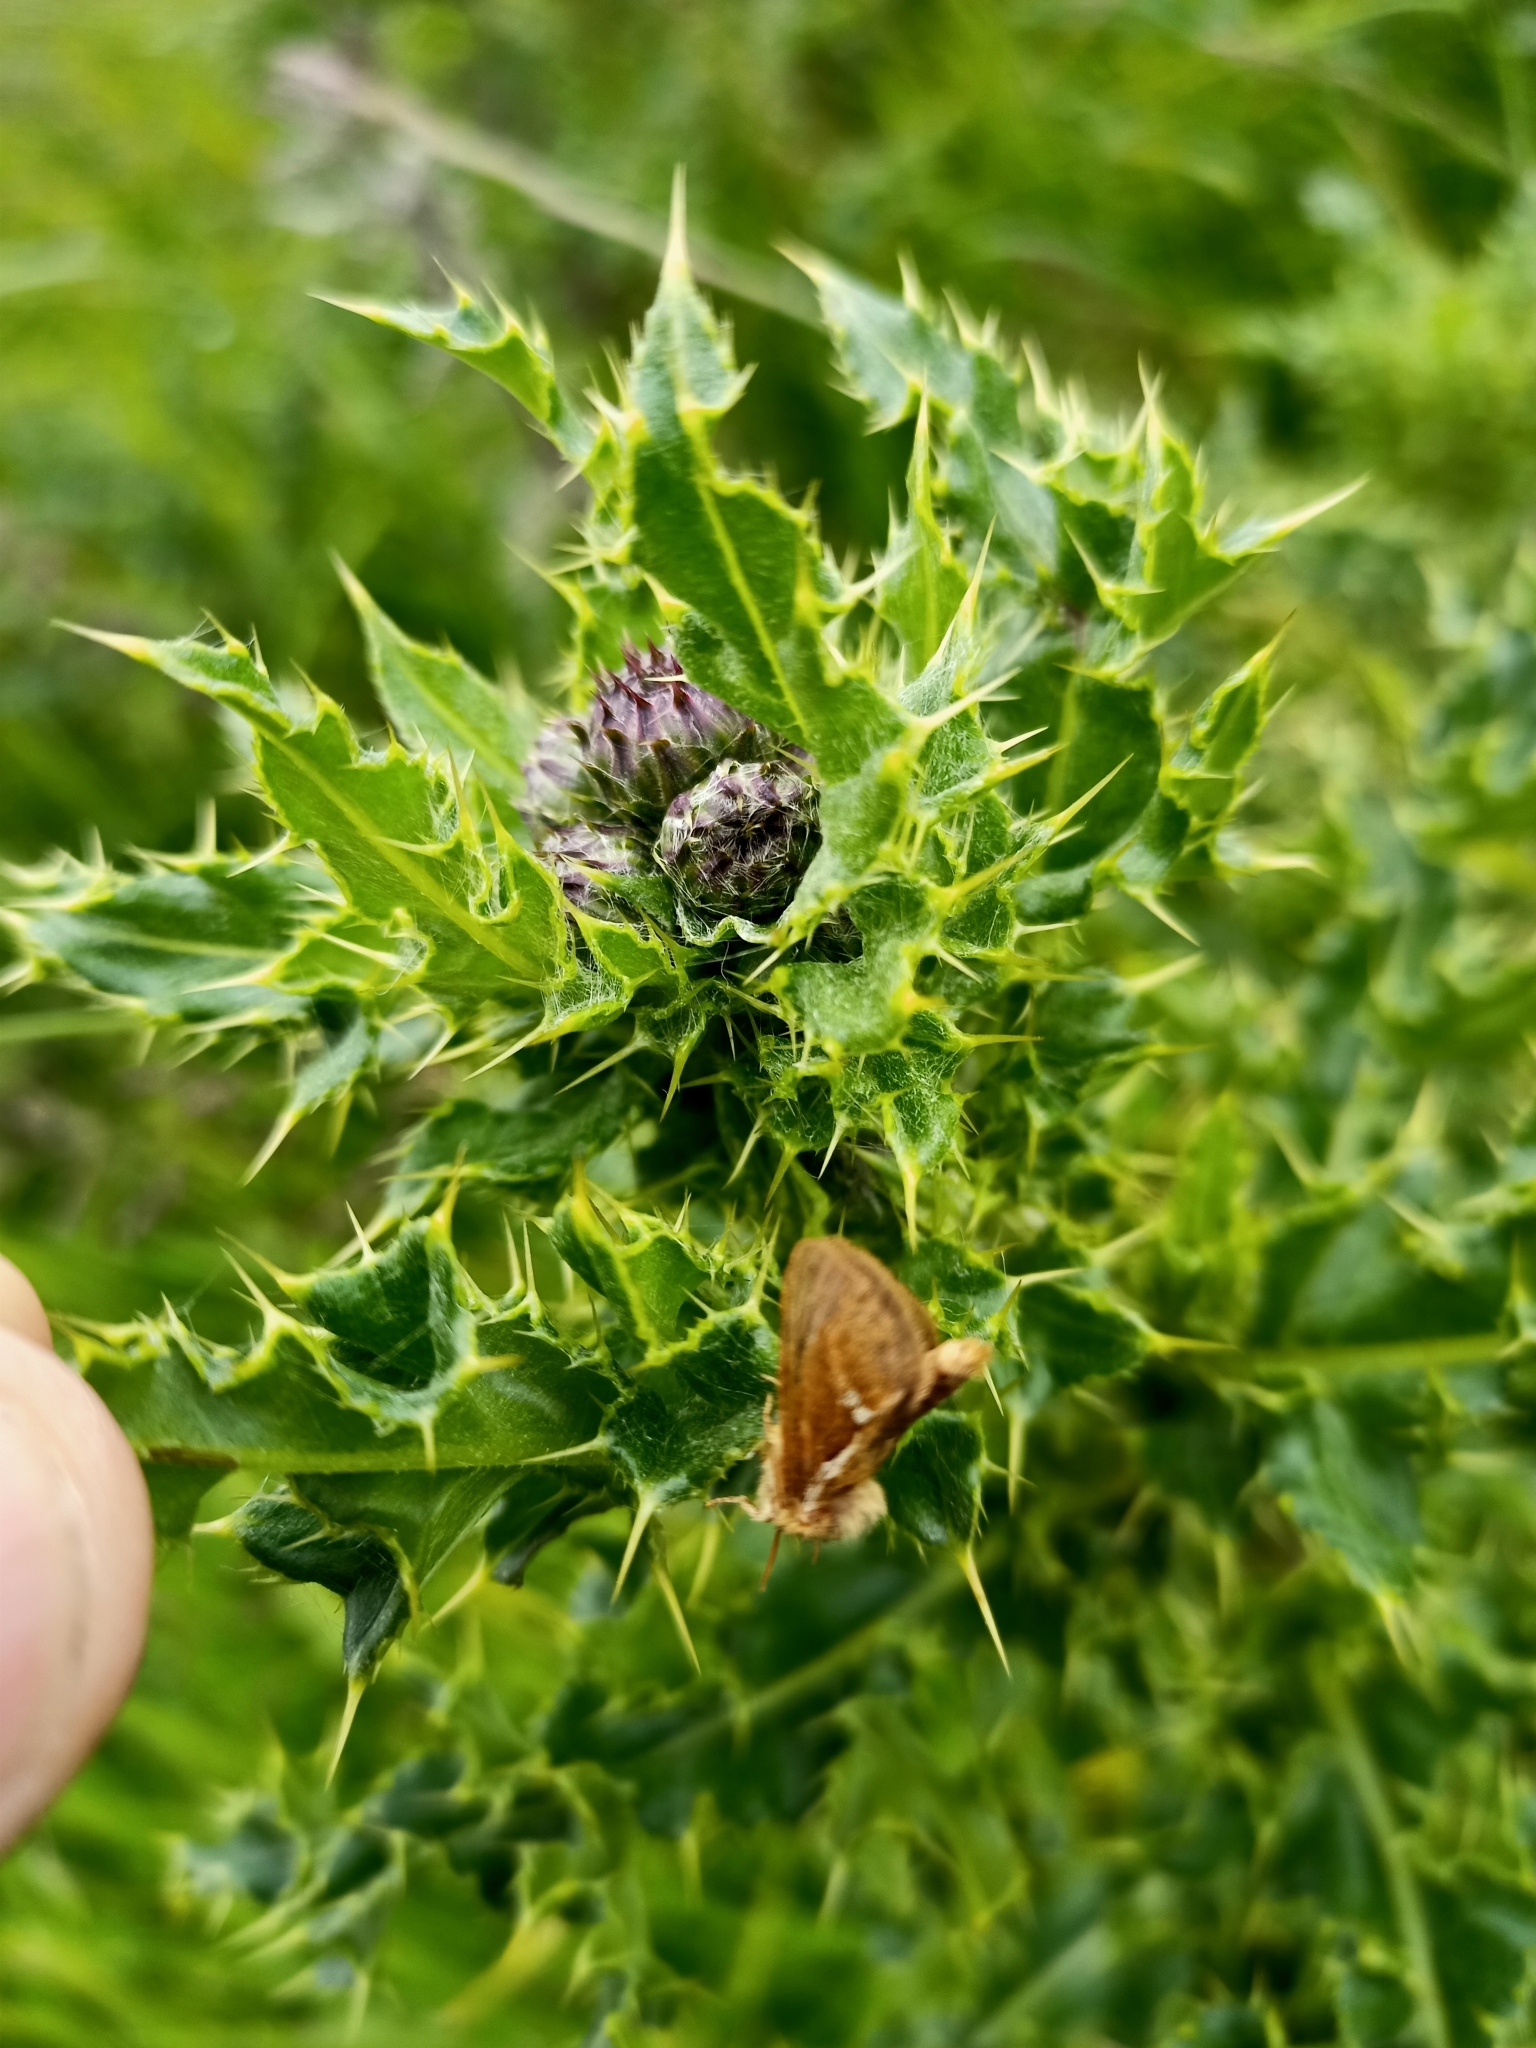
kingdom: Plantae
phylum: Tracheophyta
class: Magnoliopsida
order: Asterales
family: Asteraceae
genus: Cirsium
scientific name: Cirsium arvense
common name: Creeping thistle
